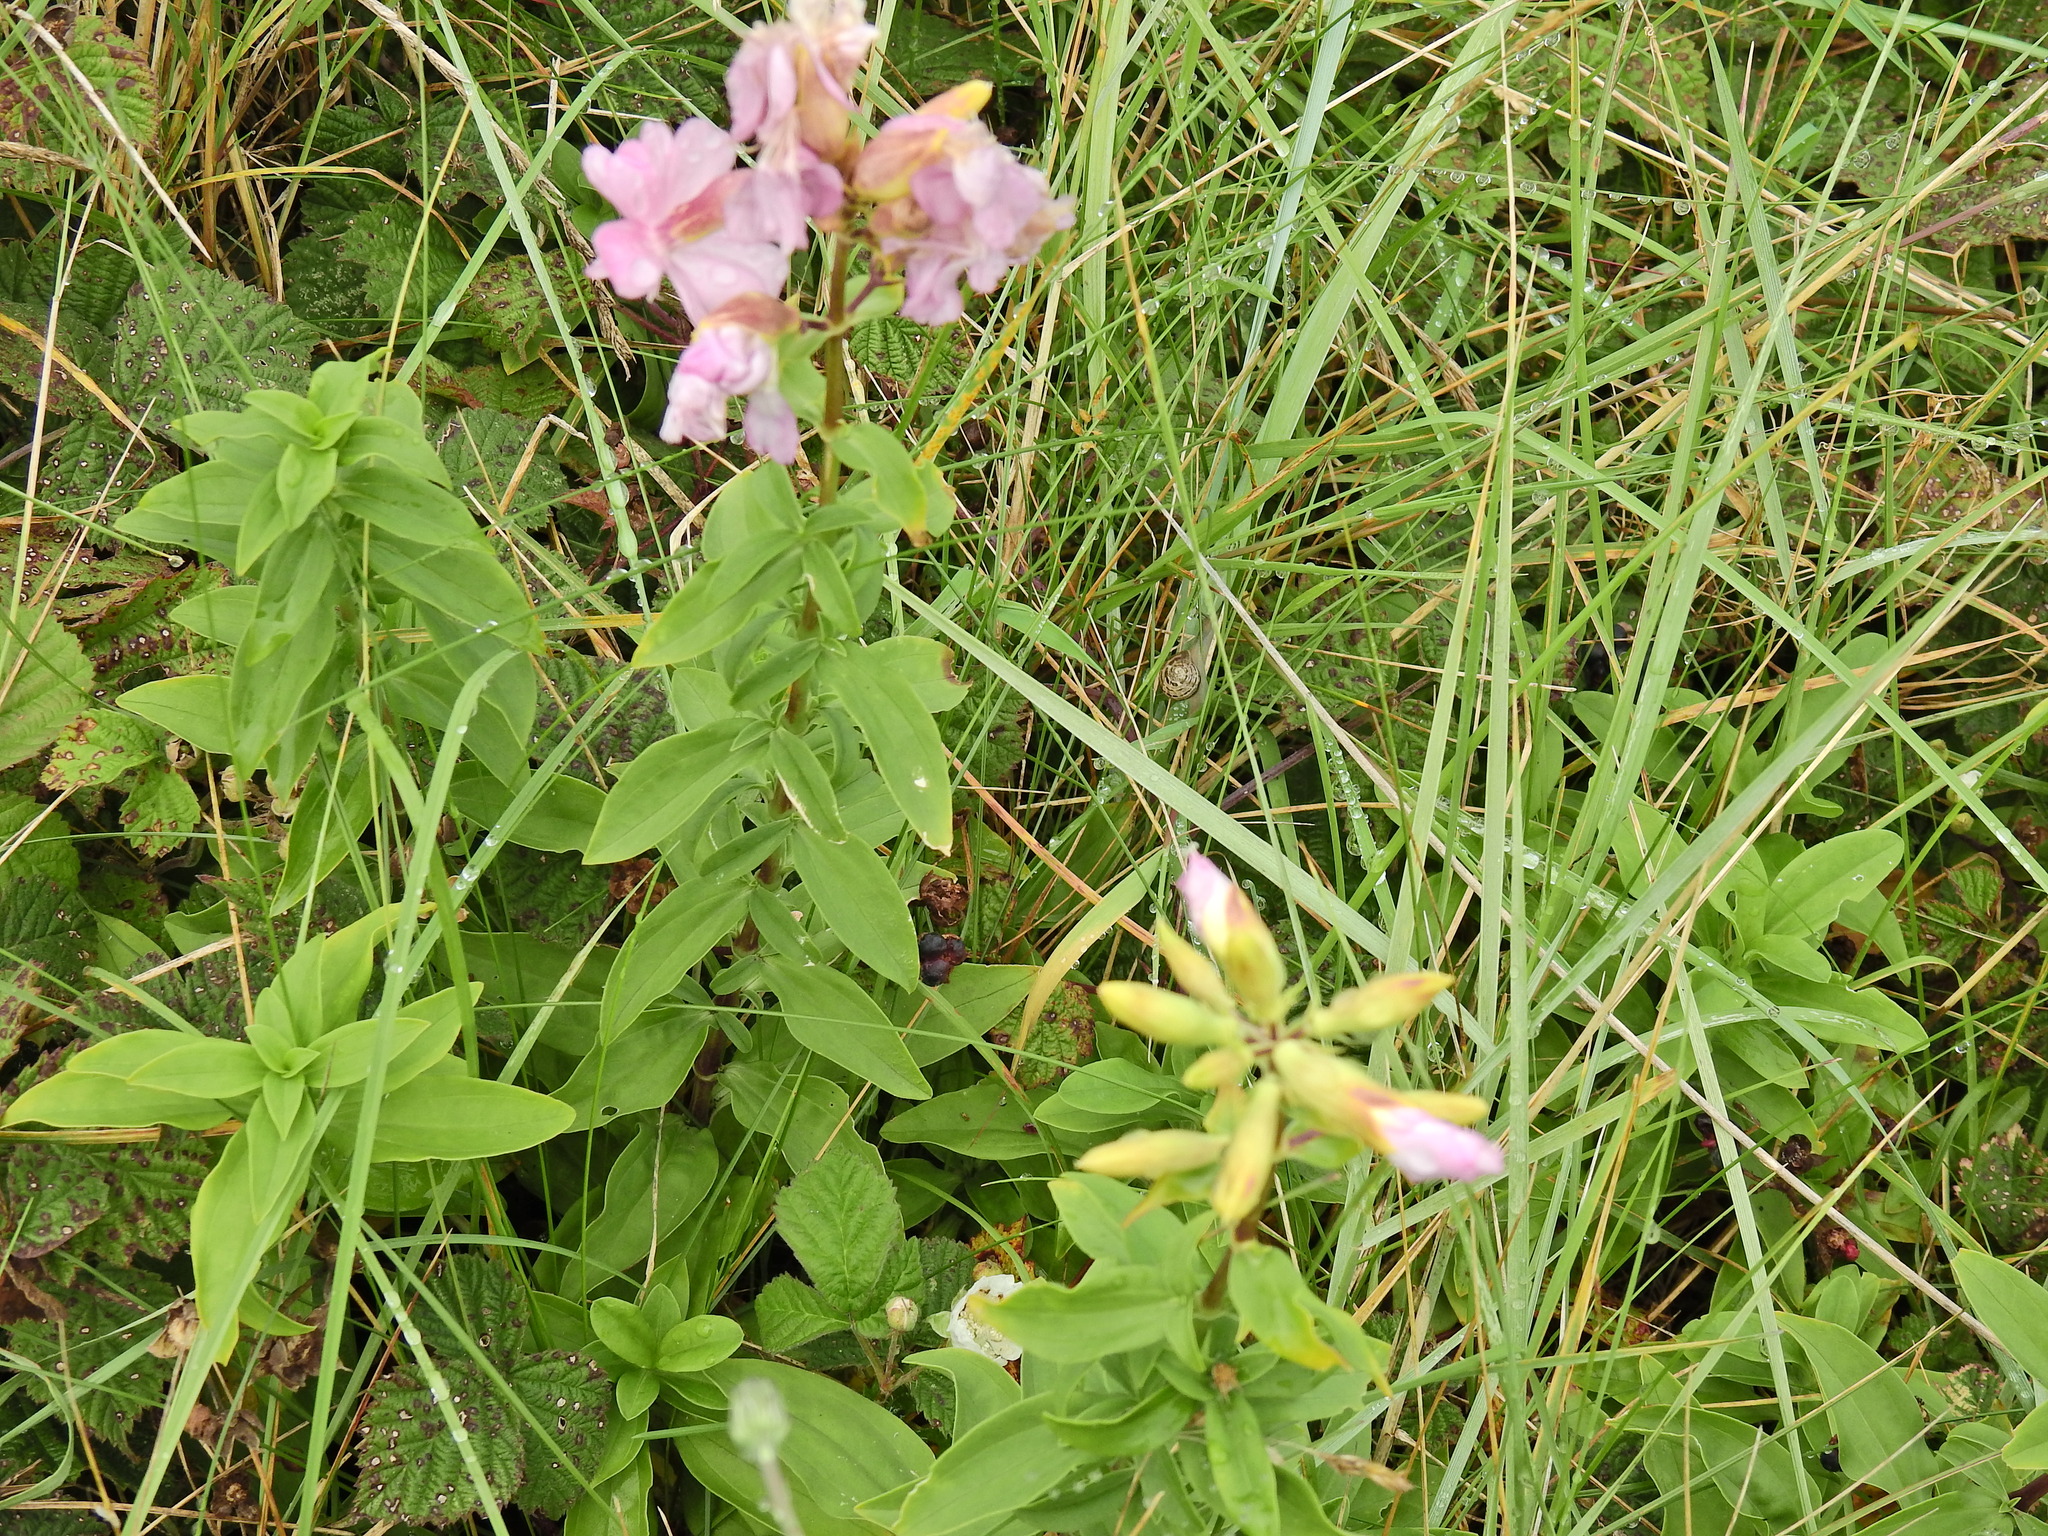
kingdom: Plantae
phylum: Tracheophyta
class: Magnoliopsida
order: Caryophyllales
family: Caryophyllaceae
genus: Saponaria
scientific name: Saponaria officinalis
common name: Soapwort
